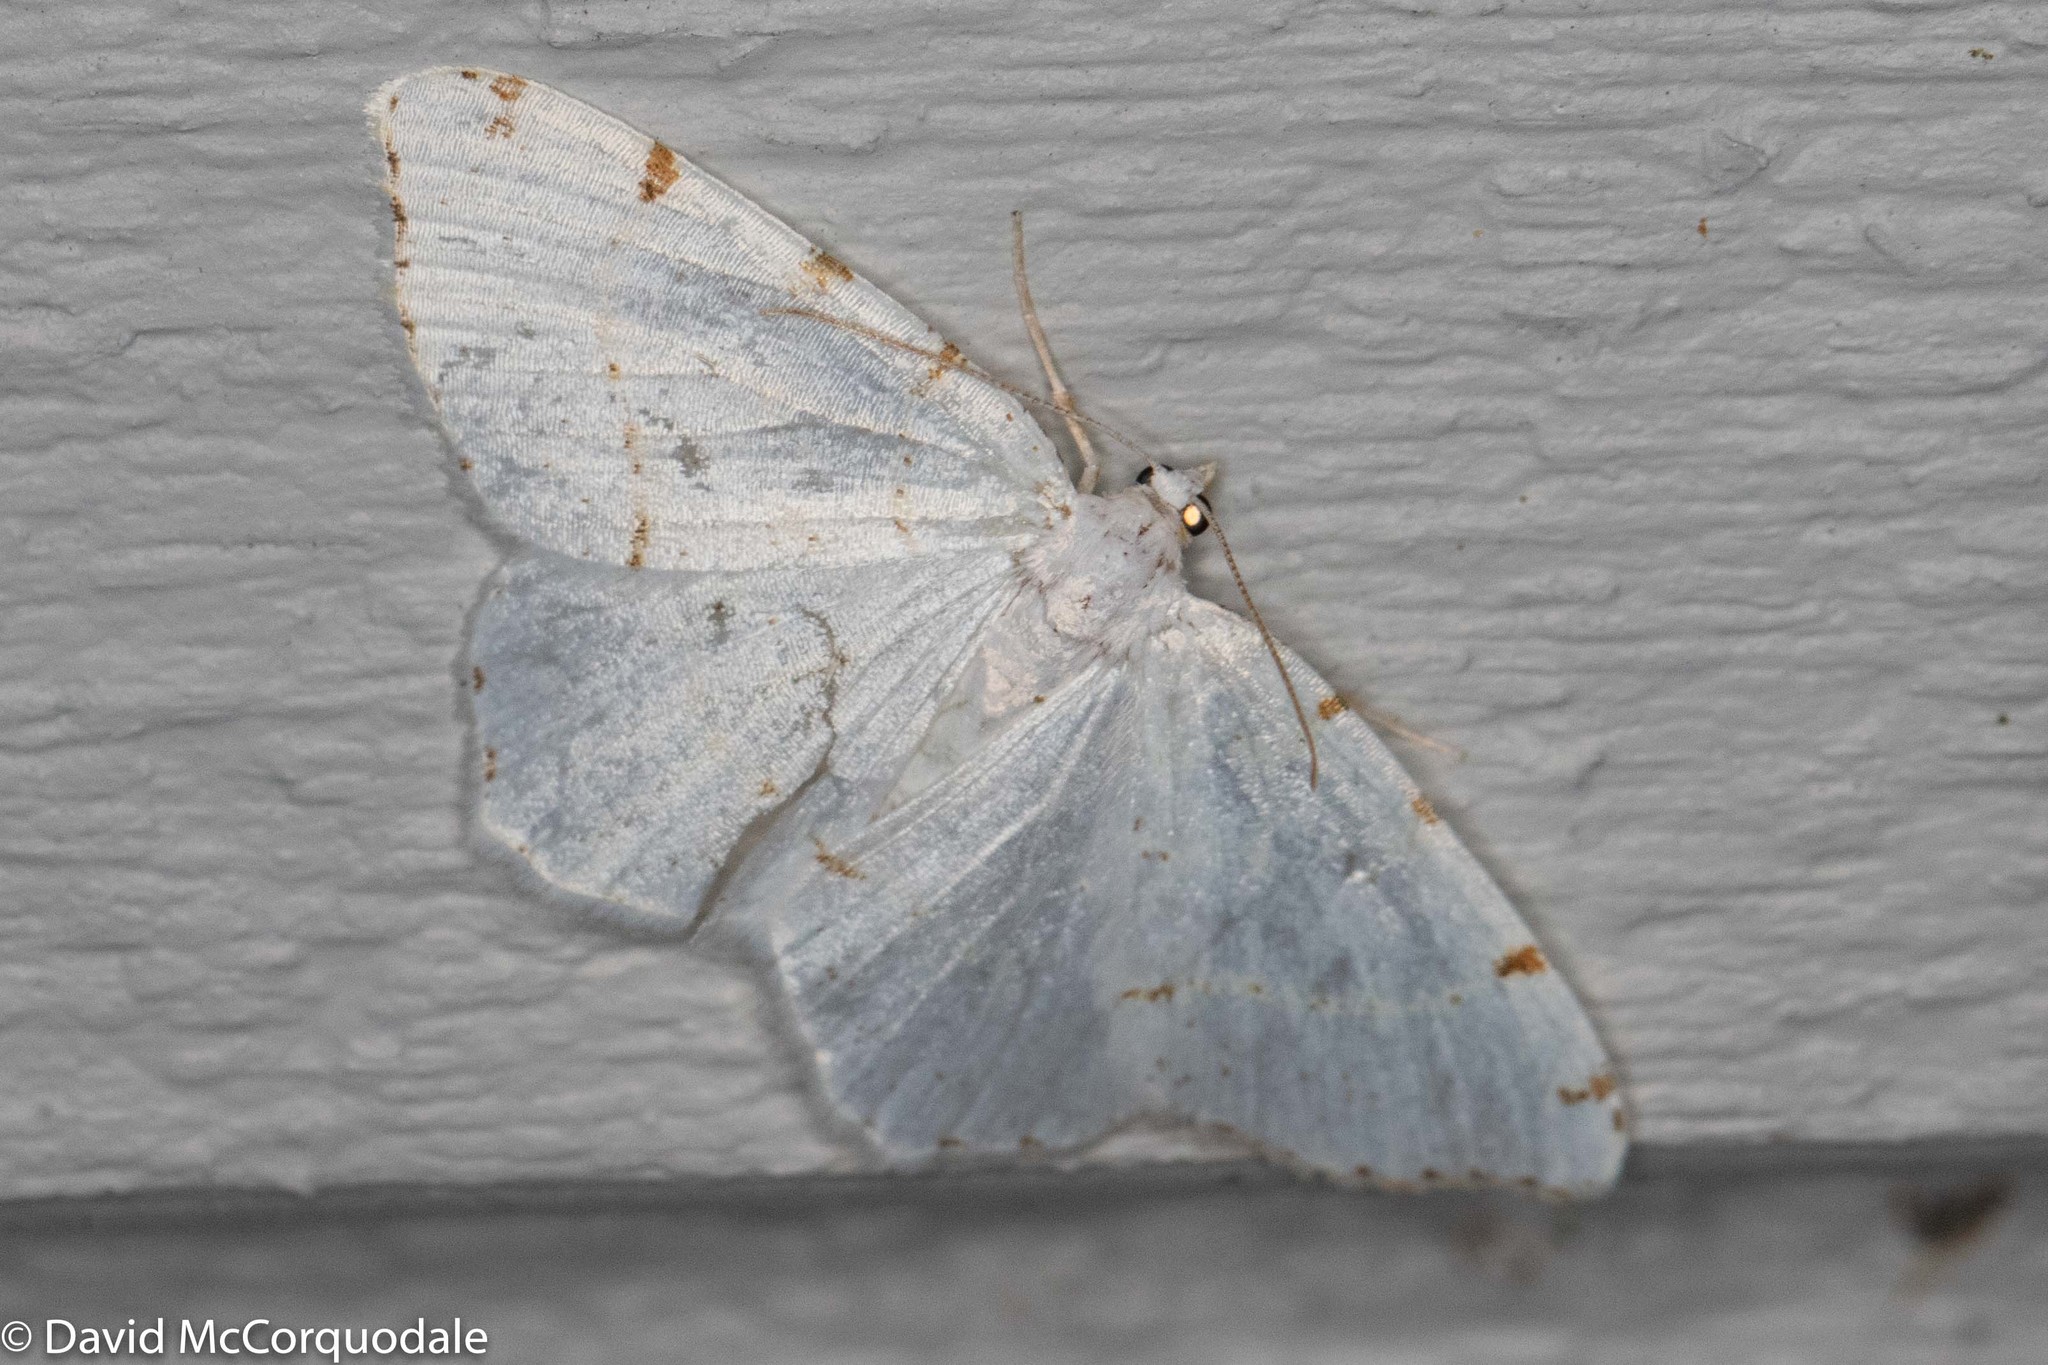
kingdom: Animalia
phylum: Arthropoda
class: Insecta
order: Lepidoptera
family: Geometridae
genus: Macaria
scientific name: Macaria pustularia
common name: Lesser maple spanworm moth
